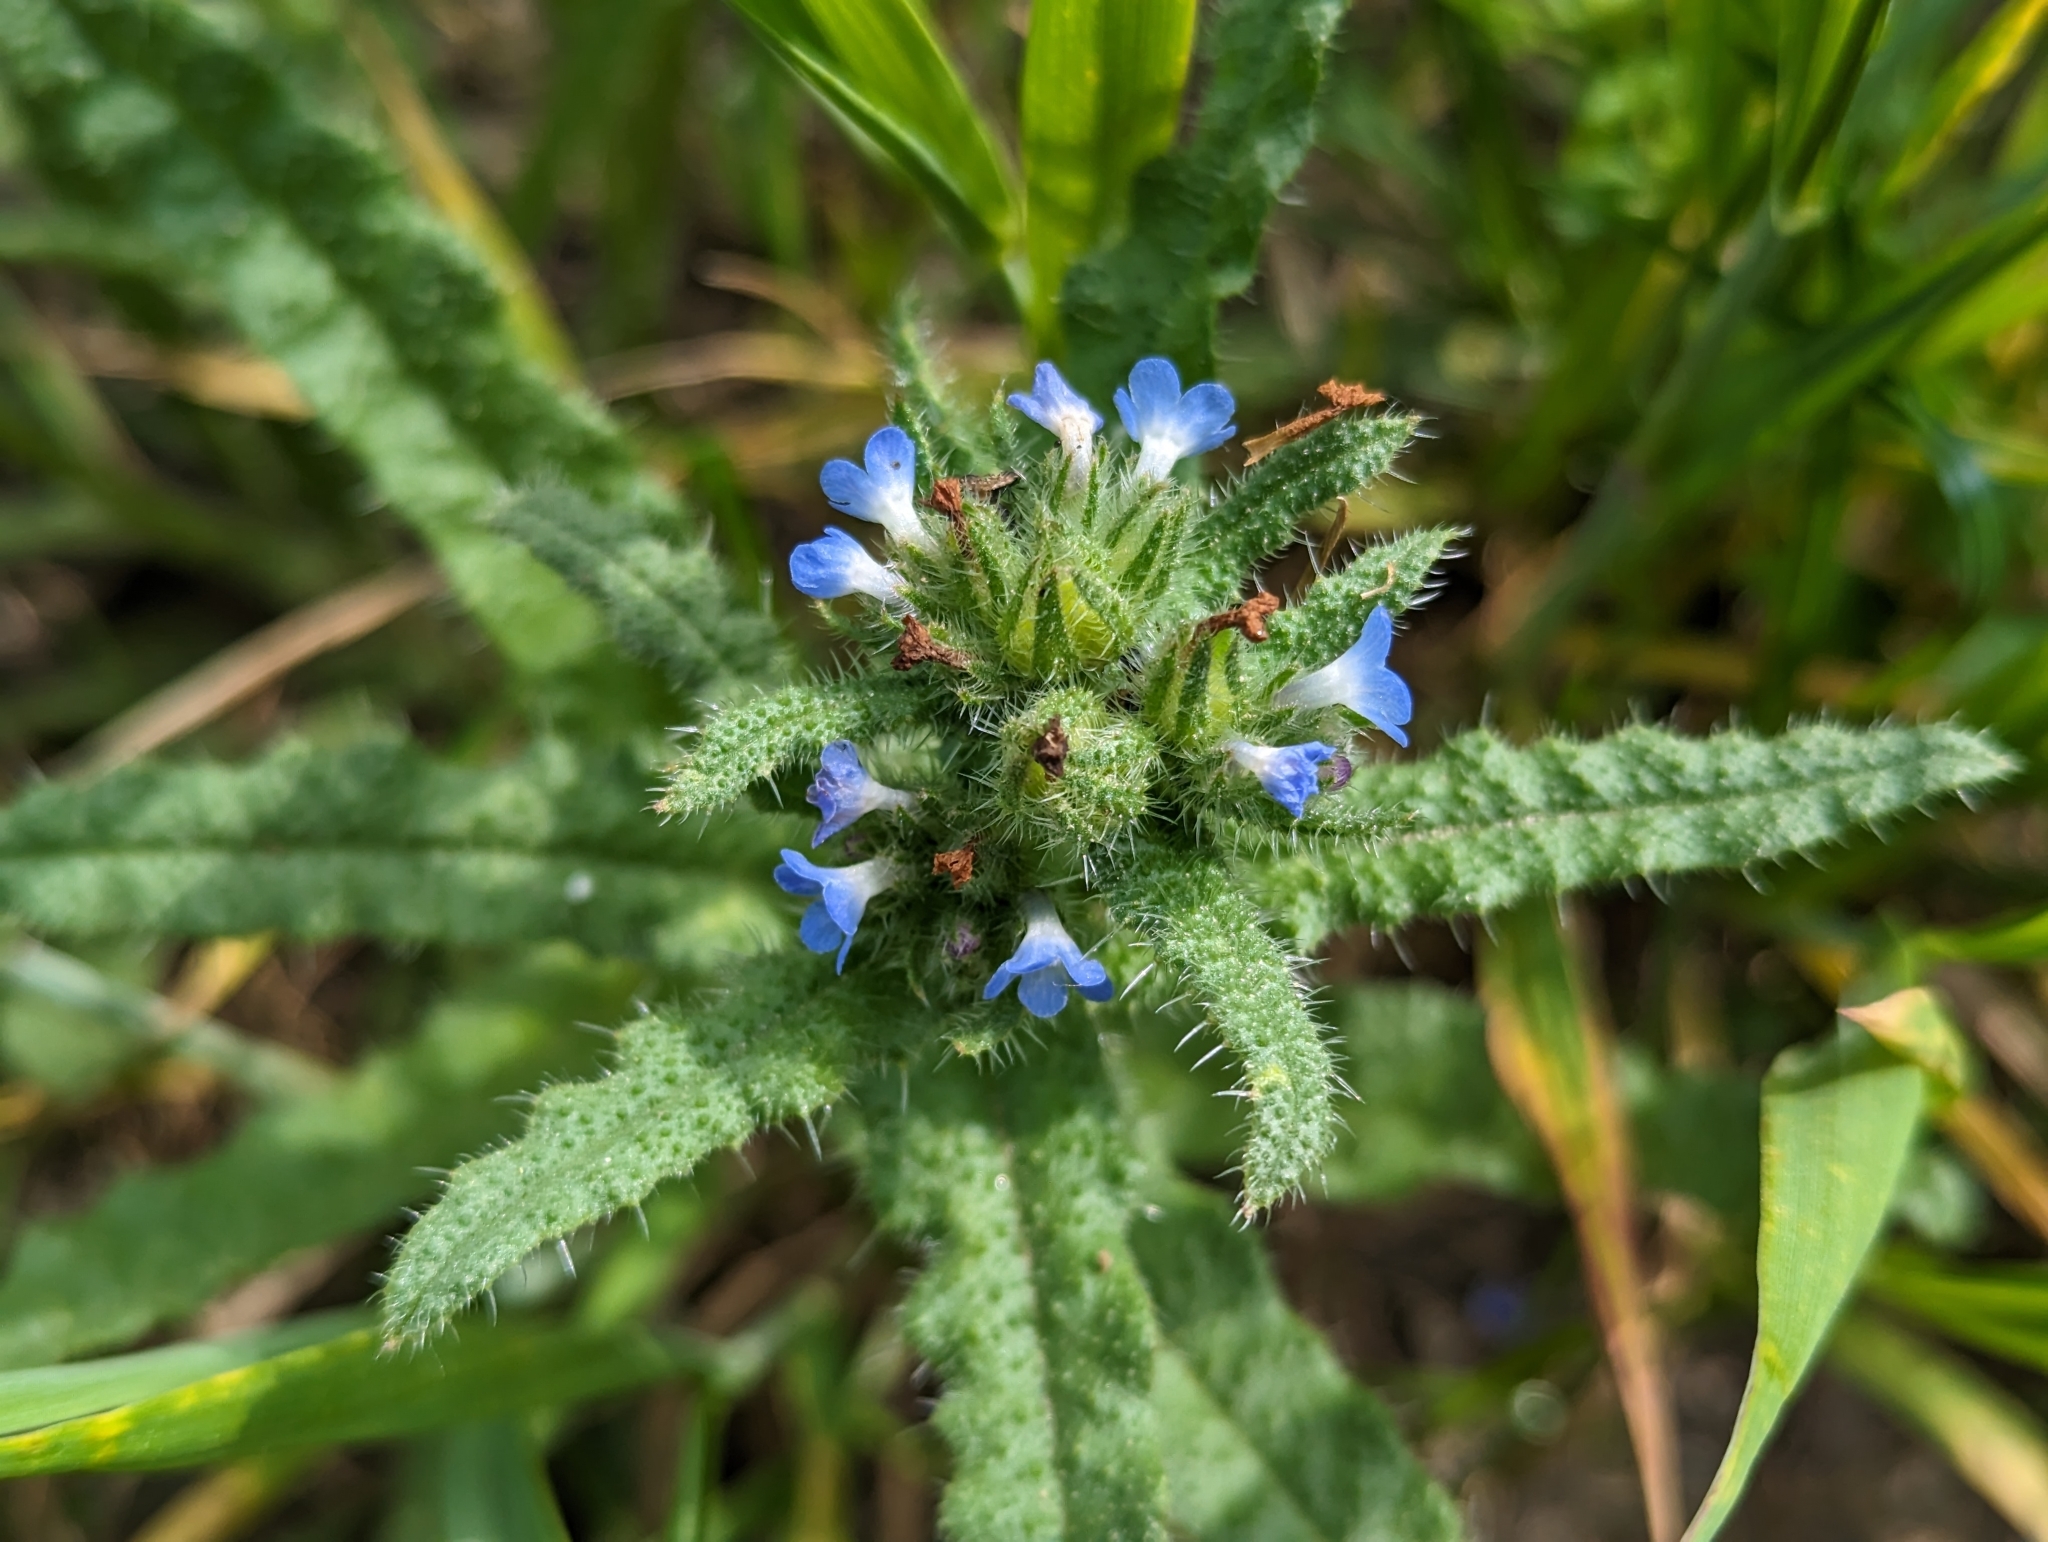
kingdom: Plantae
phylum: Tracheophyta
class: Magnoliopsida
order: Boraginales
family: Boraginaceae
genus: Lycopsis
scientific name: Lycopsis arvensis
